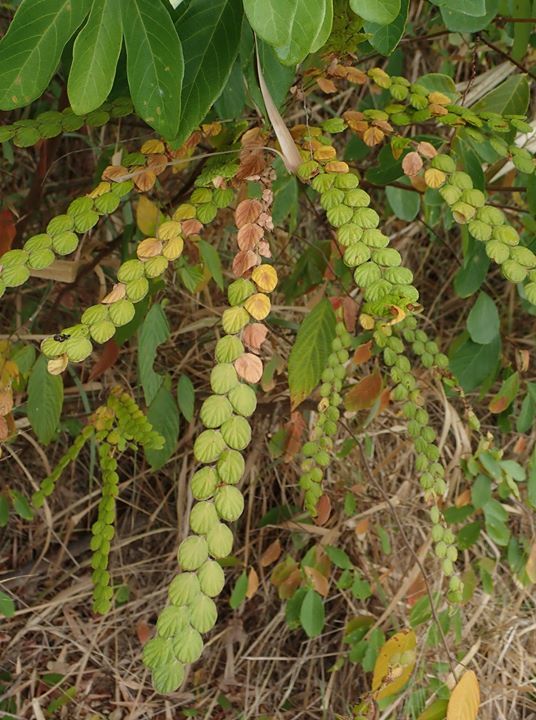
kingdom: Plantae
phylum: Tracheophyta
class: Magnoliopsida
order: Fabales
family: Fabaceae
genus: Phyllodium
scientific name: Phyllodium pulchellum
